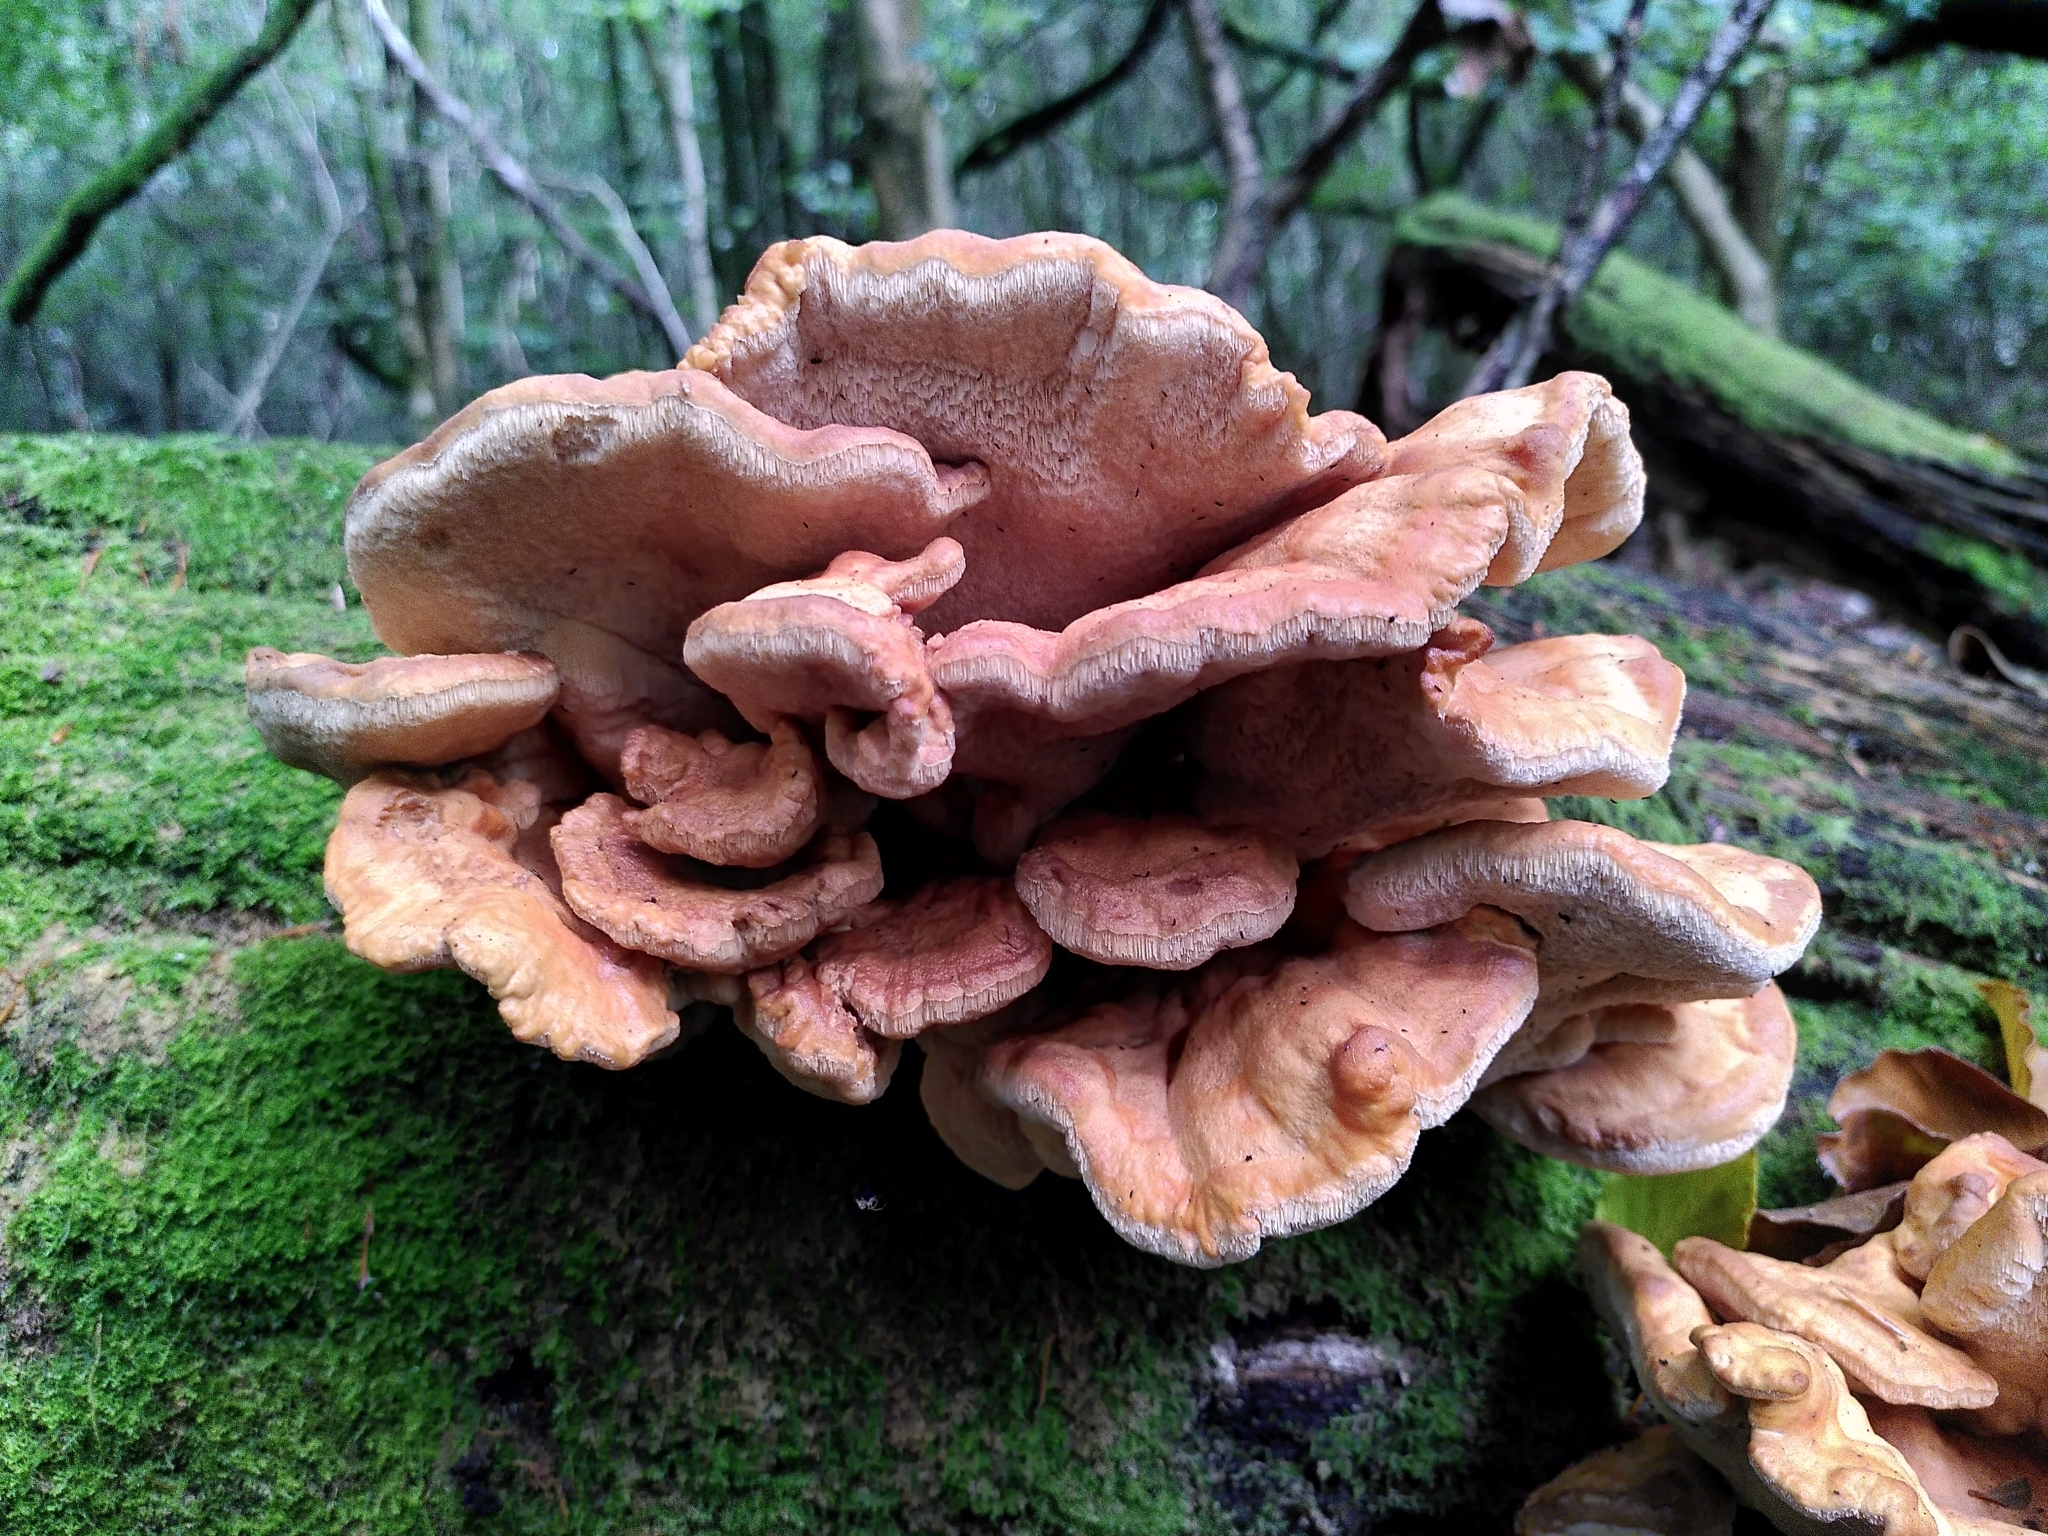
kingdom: Fungi
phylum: Basidiomycota
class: Agaricomycetes
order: Polyporales
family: Laetiporaceae
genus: Laetiporus
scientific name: Laetiporus sulphureus
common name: Chicken of the woods
